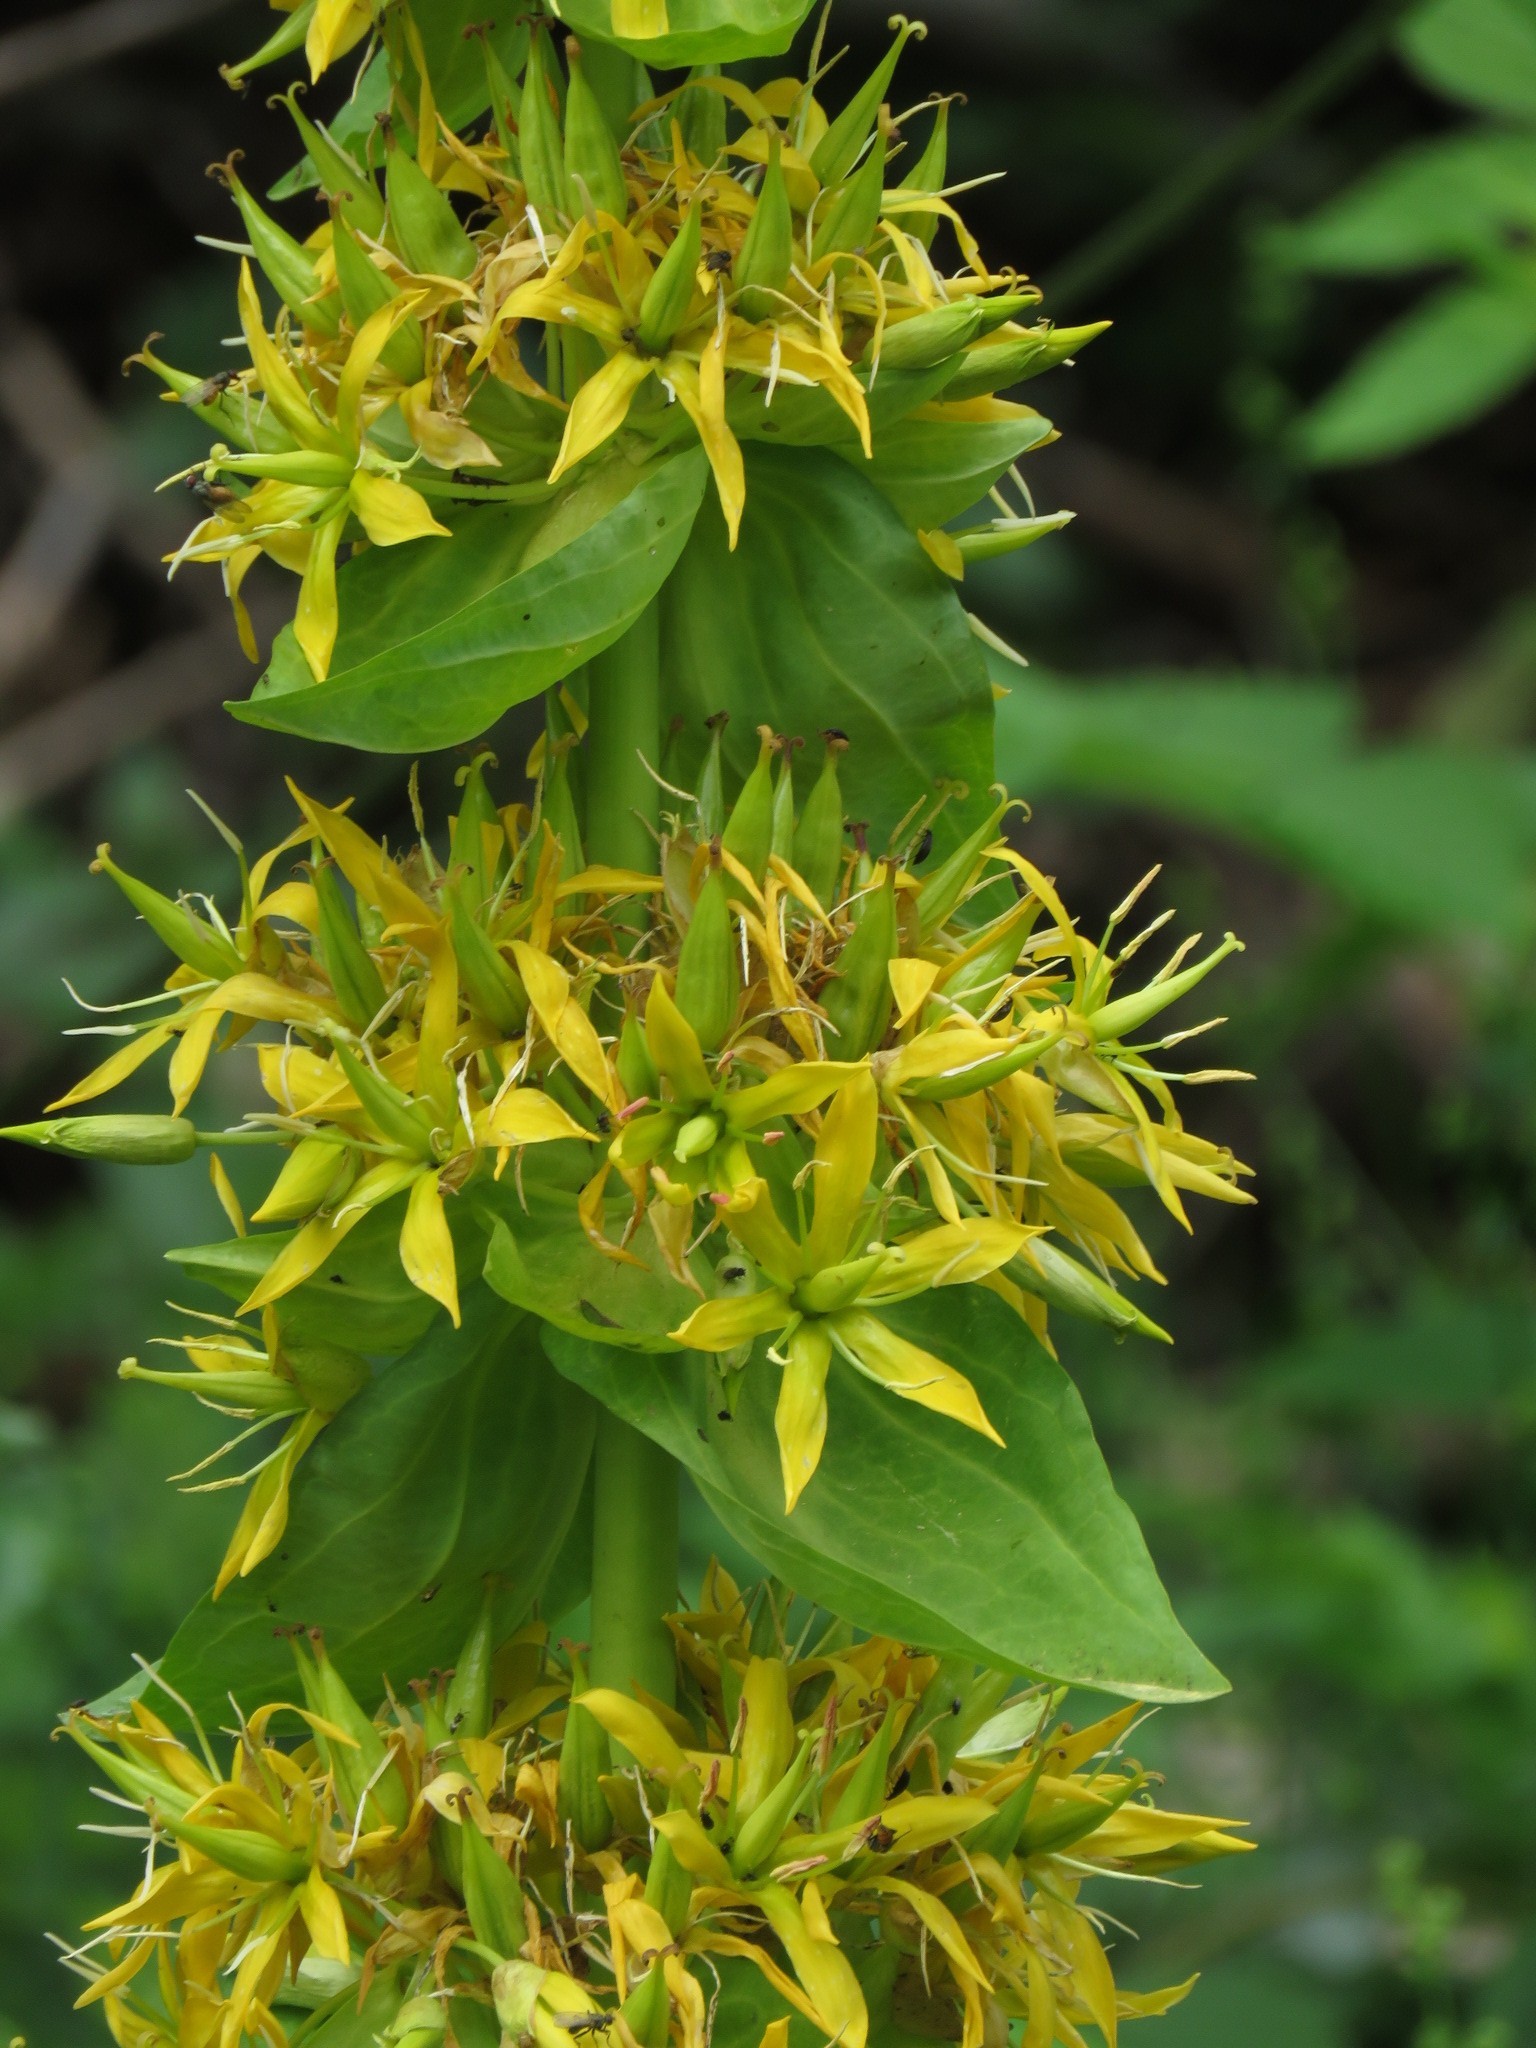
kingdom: Plantae
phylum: Tracheophyta
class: Magnoliopsida
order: Gentianales
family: Gentianaceae
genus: Gentiana
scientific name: Gentiana lutea
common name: Great yellow gentian
